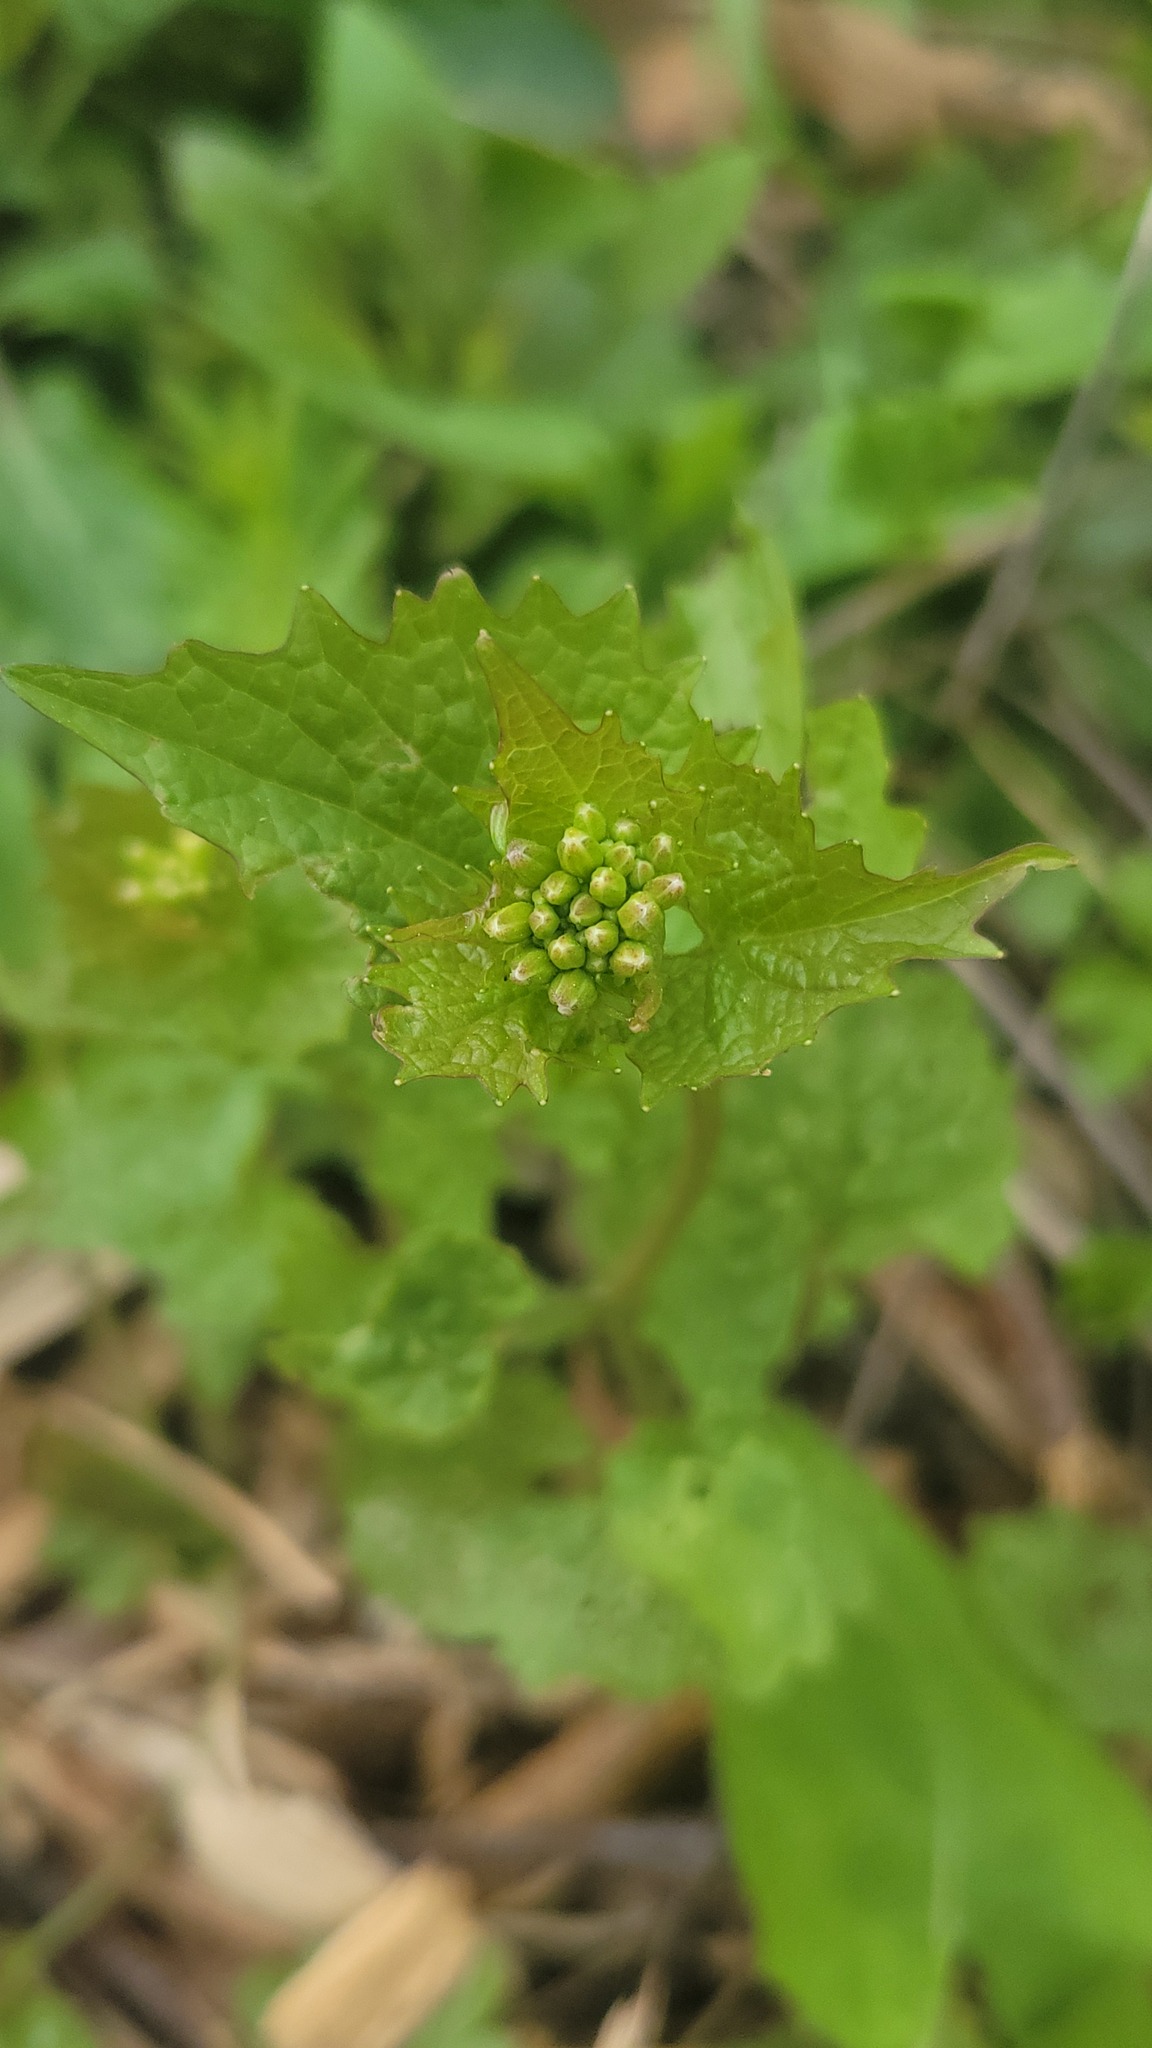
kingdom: Plantae
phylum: Tracheophyta
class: Magnoliopsida
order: Brassicales
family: Brassicaceae
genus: Alliaria
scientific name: Alliaria petiolata
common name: Garlic mustard
